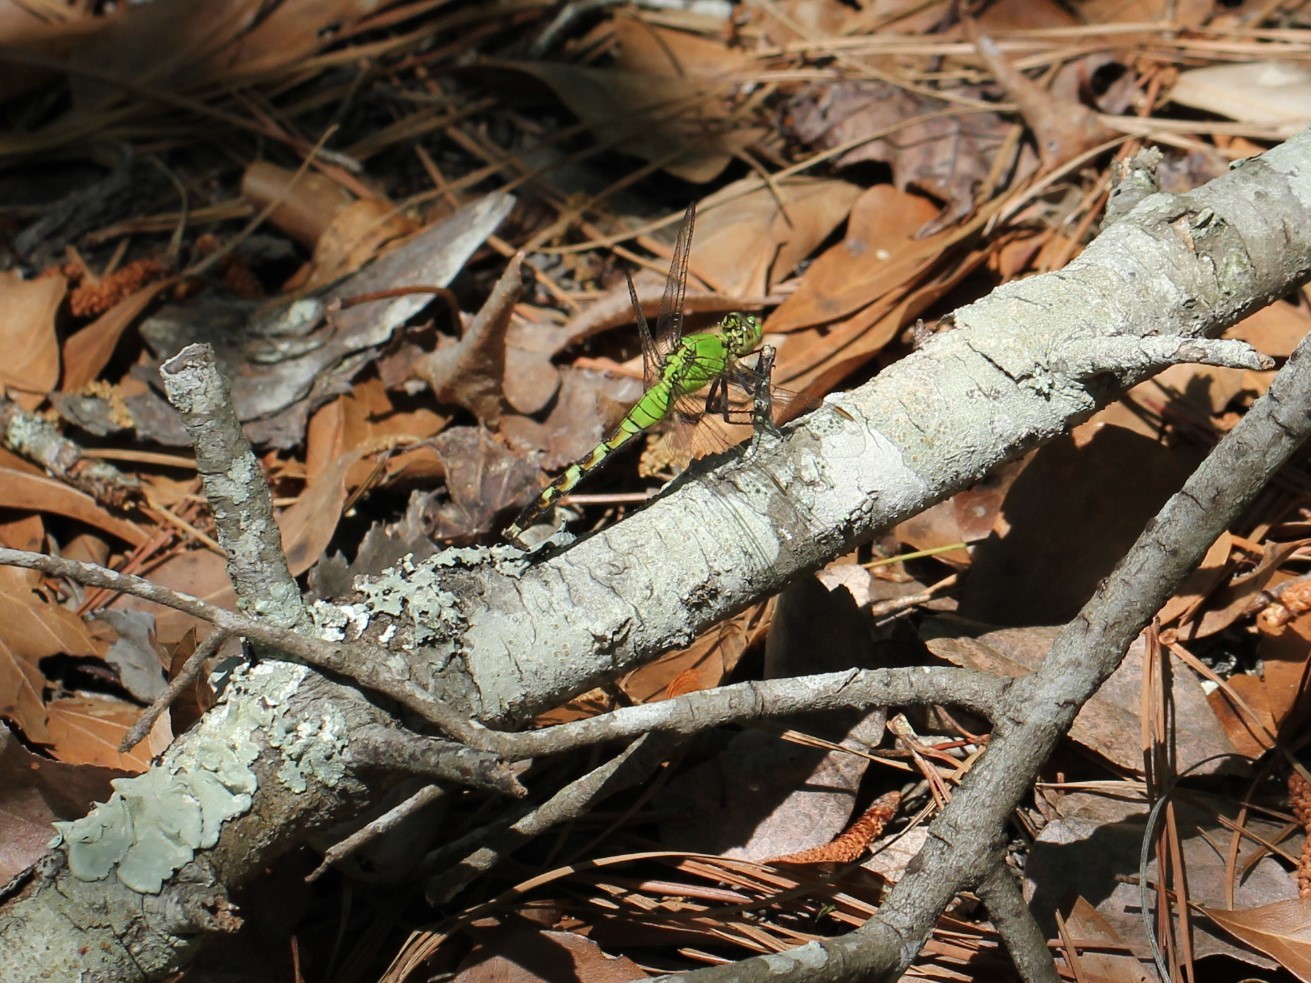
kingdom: Animalia
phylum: Arthropoda
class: Insecta
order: Odonata
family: Libellulidae
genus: Erythemis
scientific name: Erythemis simplicicollis
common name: Eastern pondhawk
